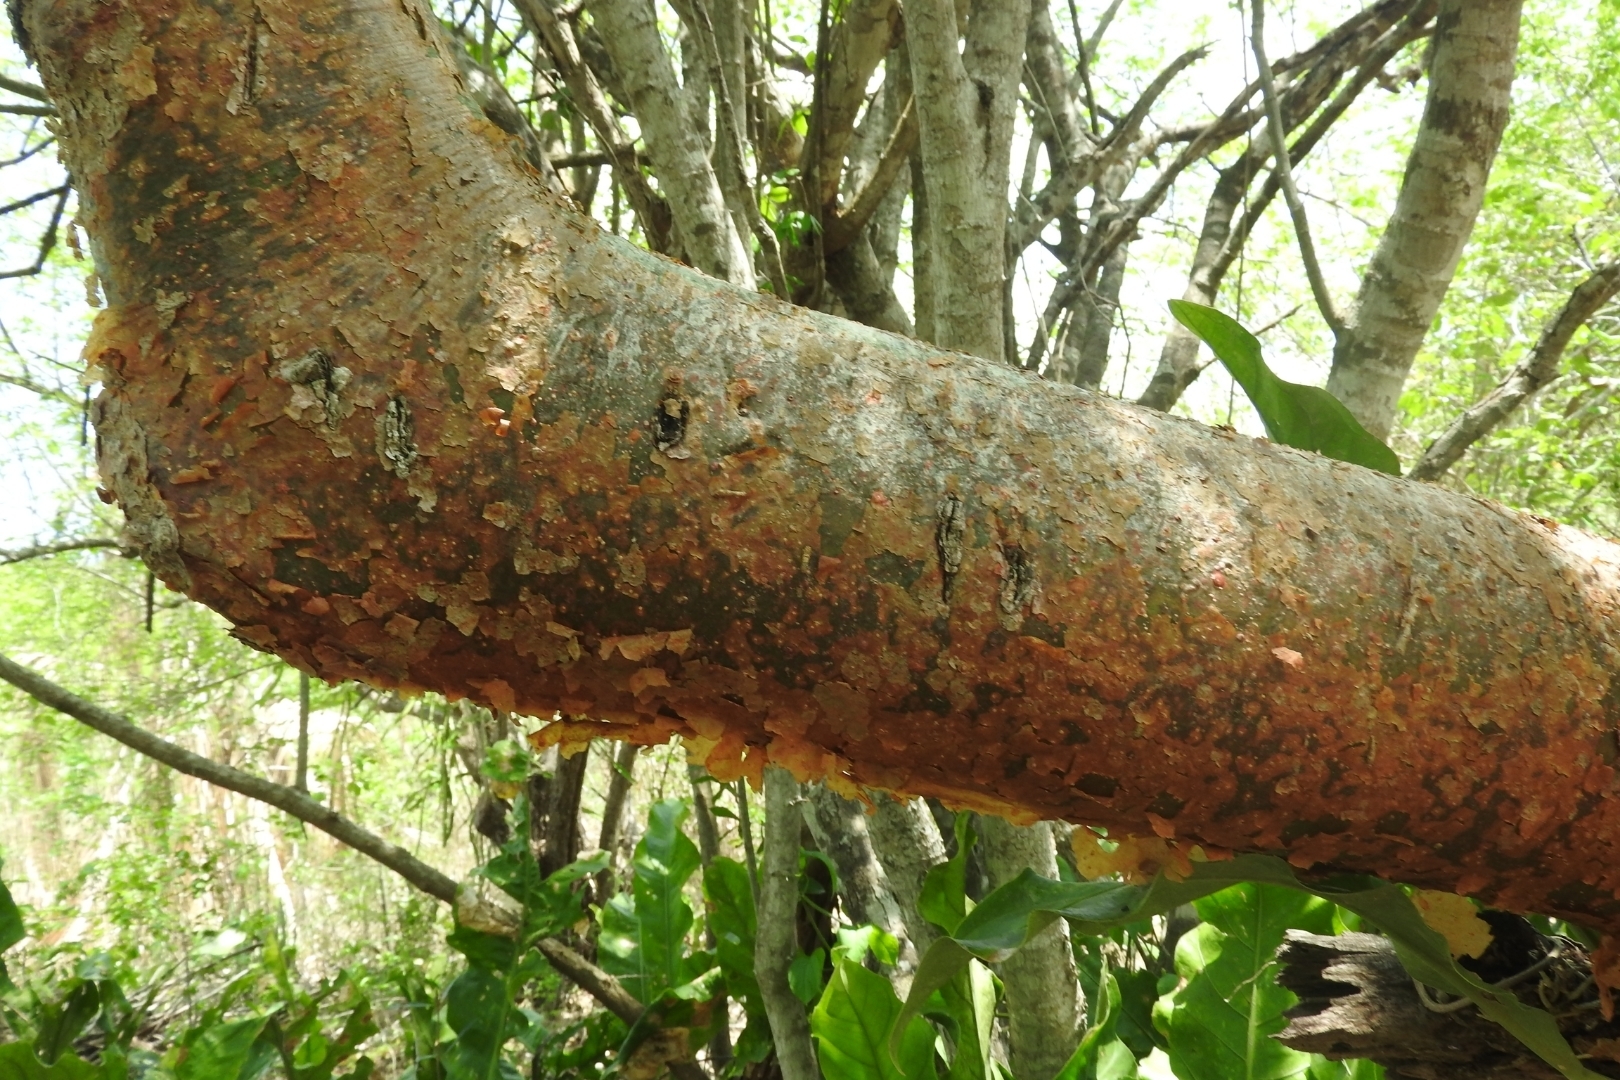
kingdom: Plantae
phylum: Tracheophyta
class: Magnoliopsida
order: Sapindales
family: Burseraceae
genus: Bursera
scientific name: Bursera simaruba
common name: Turpentine tree
